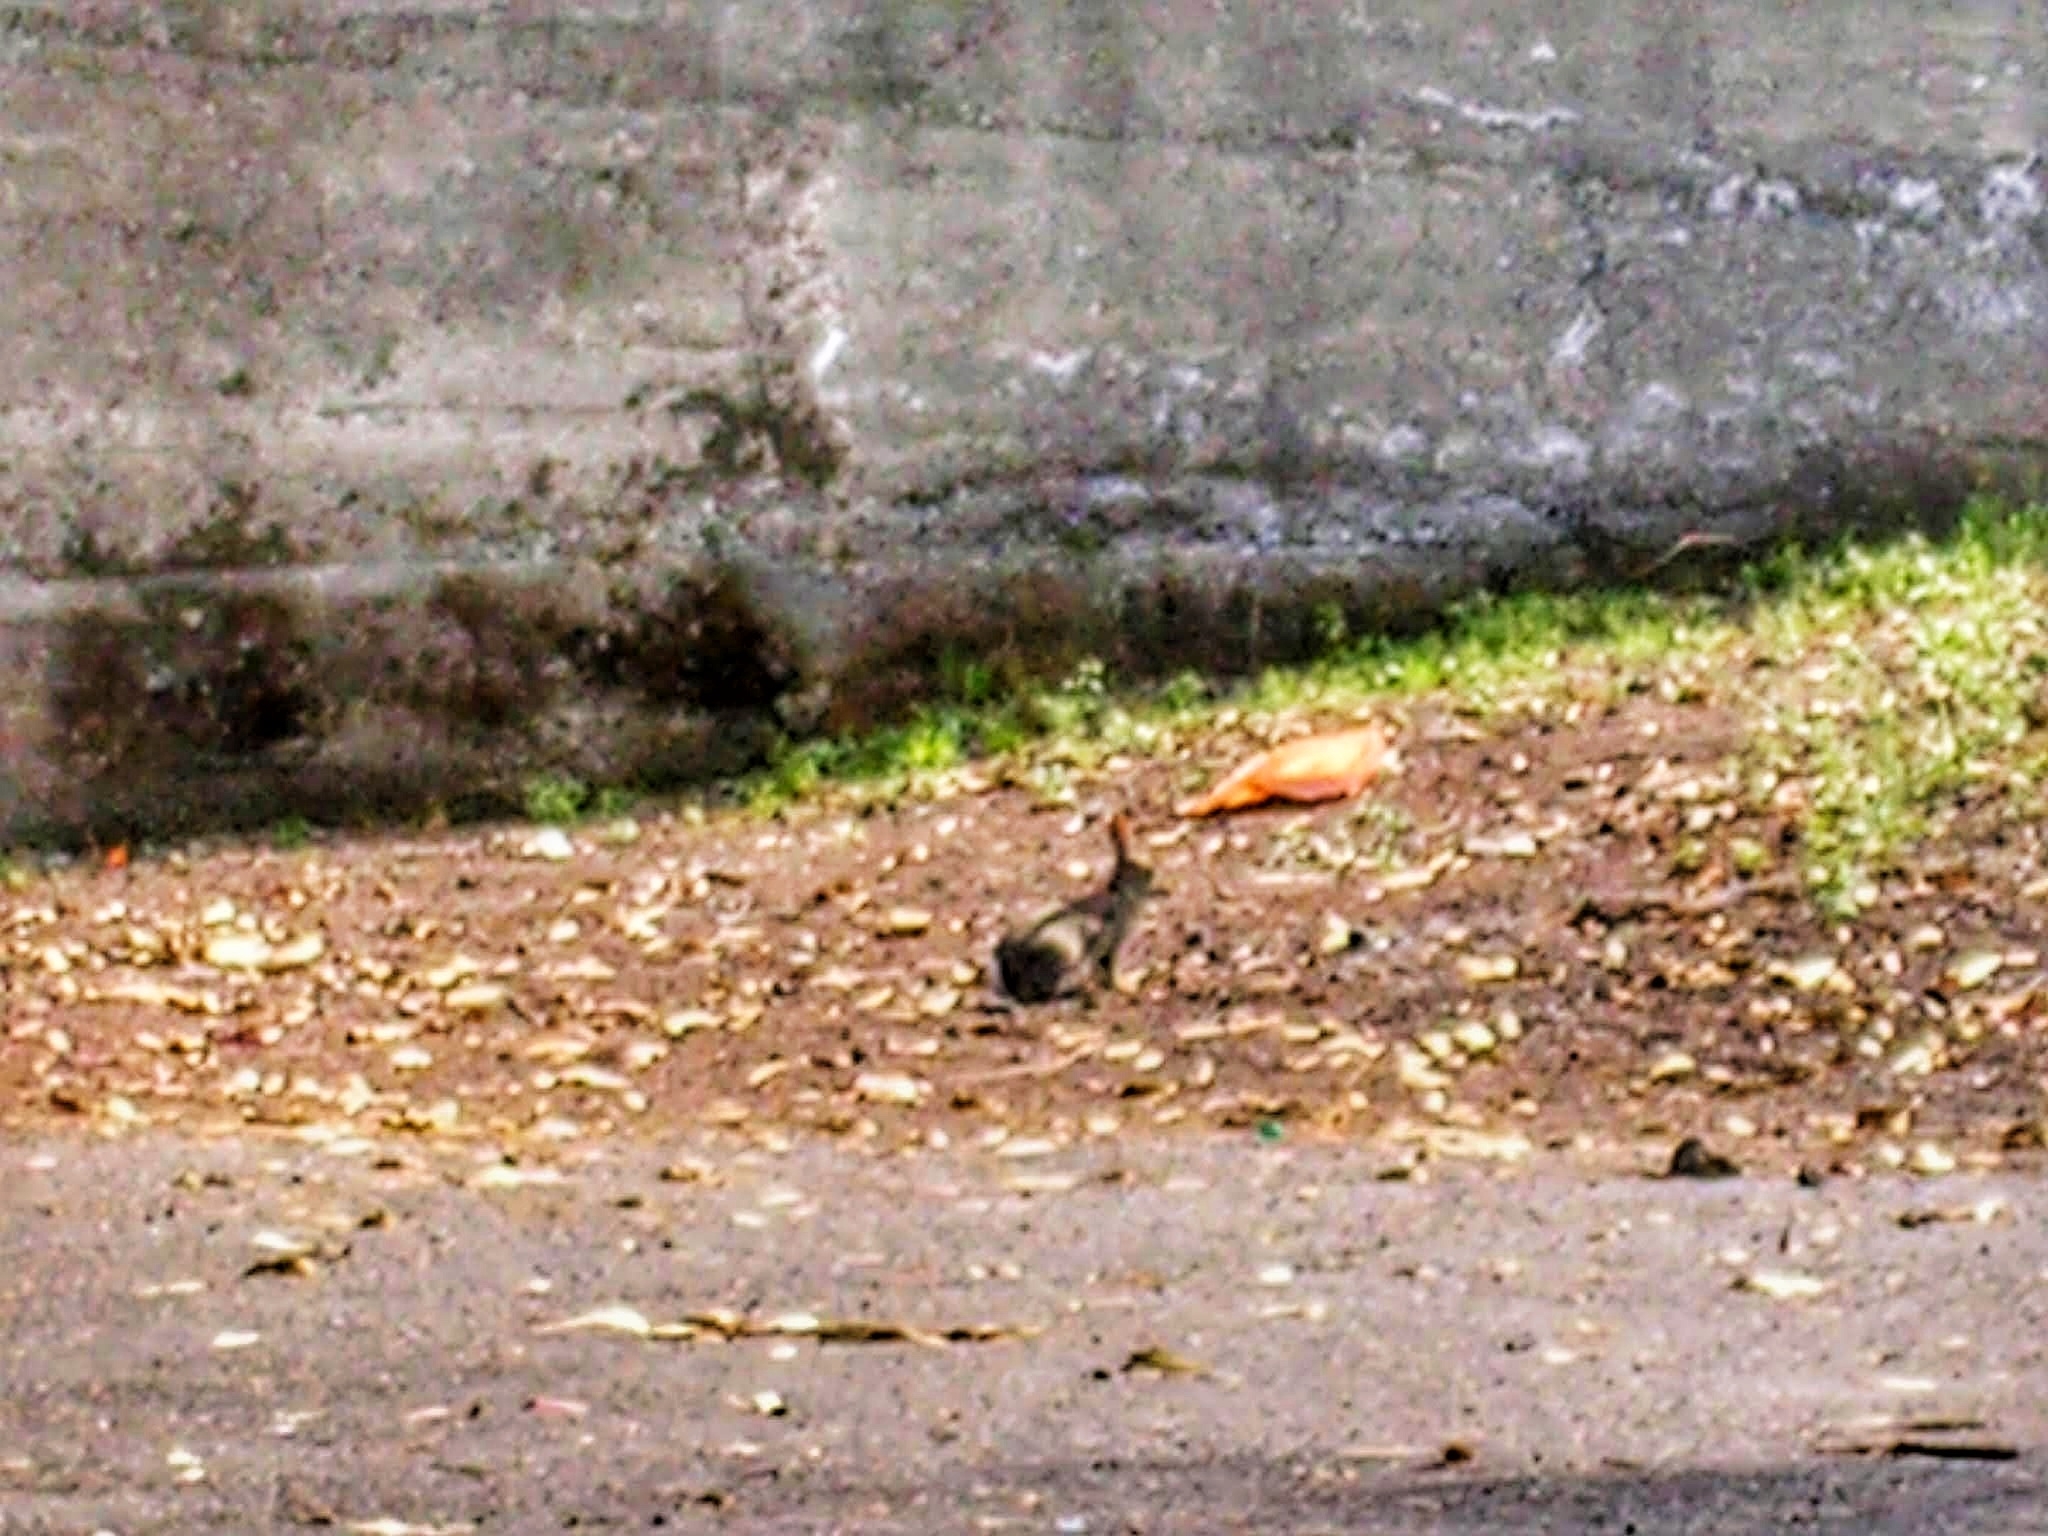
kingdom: Animalia
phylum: Chordata
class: Mammalia
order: Lagomorpha
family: Leporidae
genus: Oryctolagus
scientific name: Oryctolagus cuniculus
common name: European rabbit
